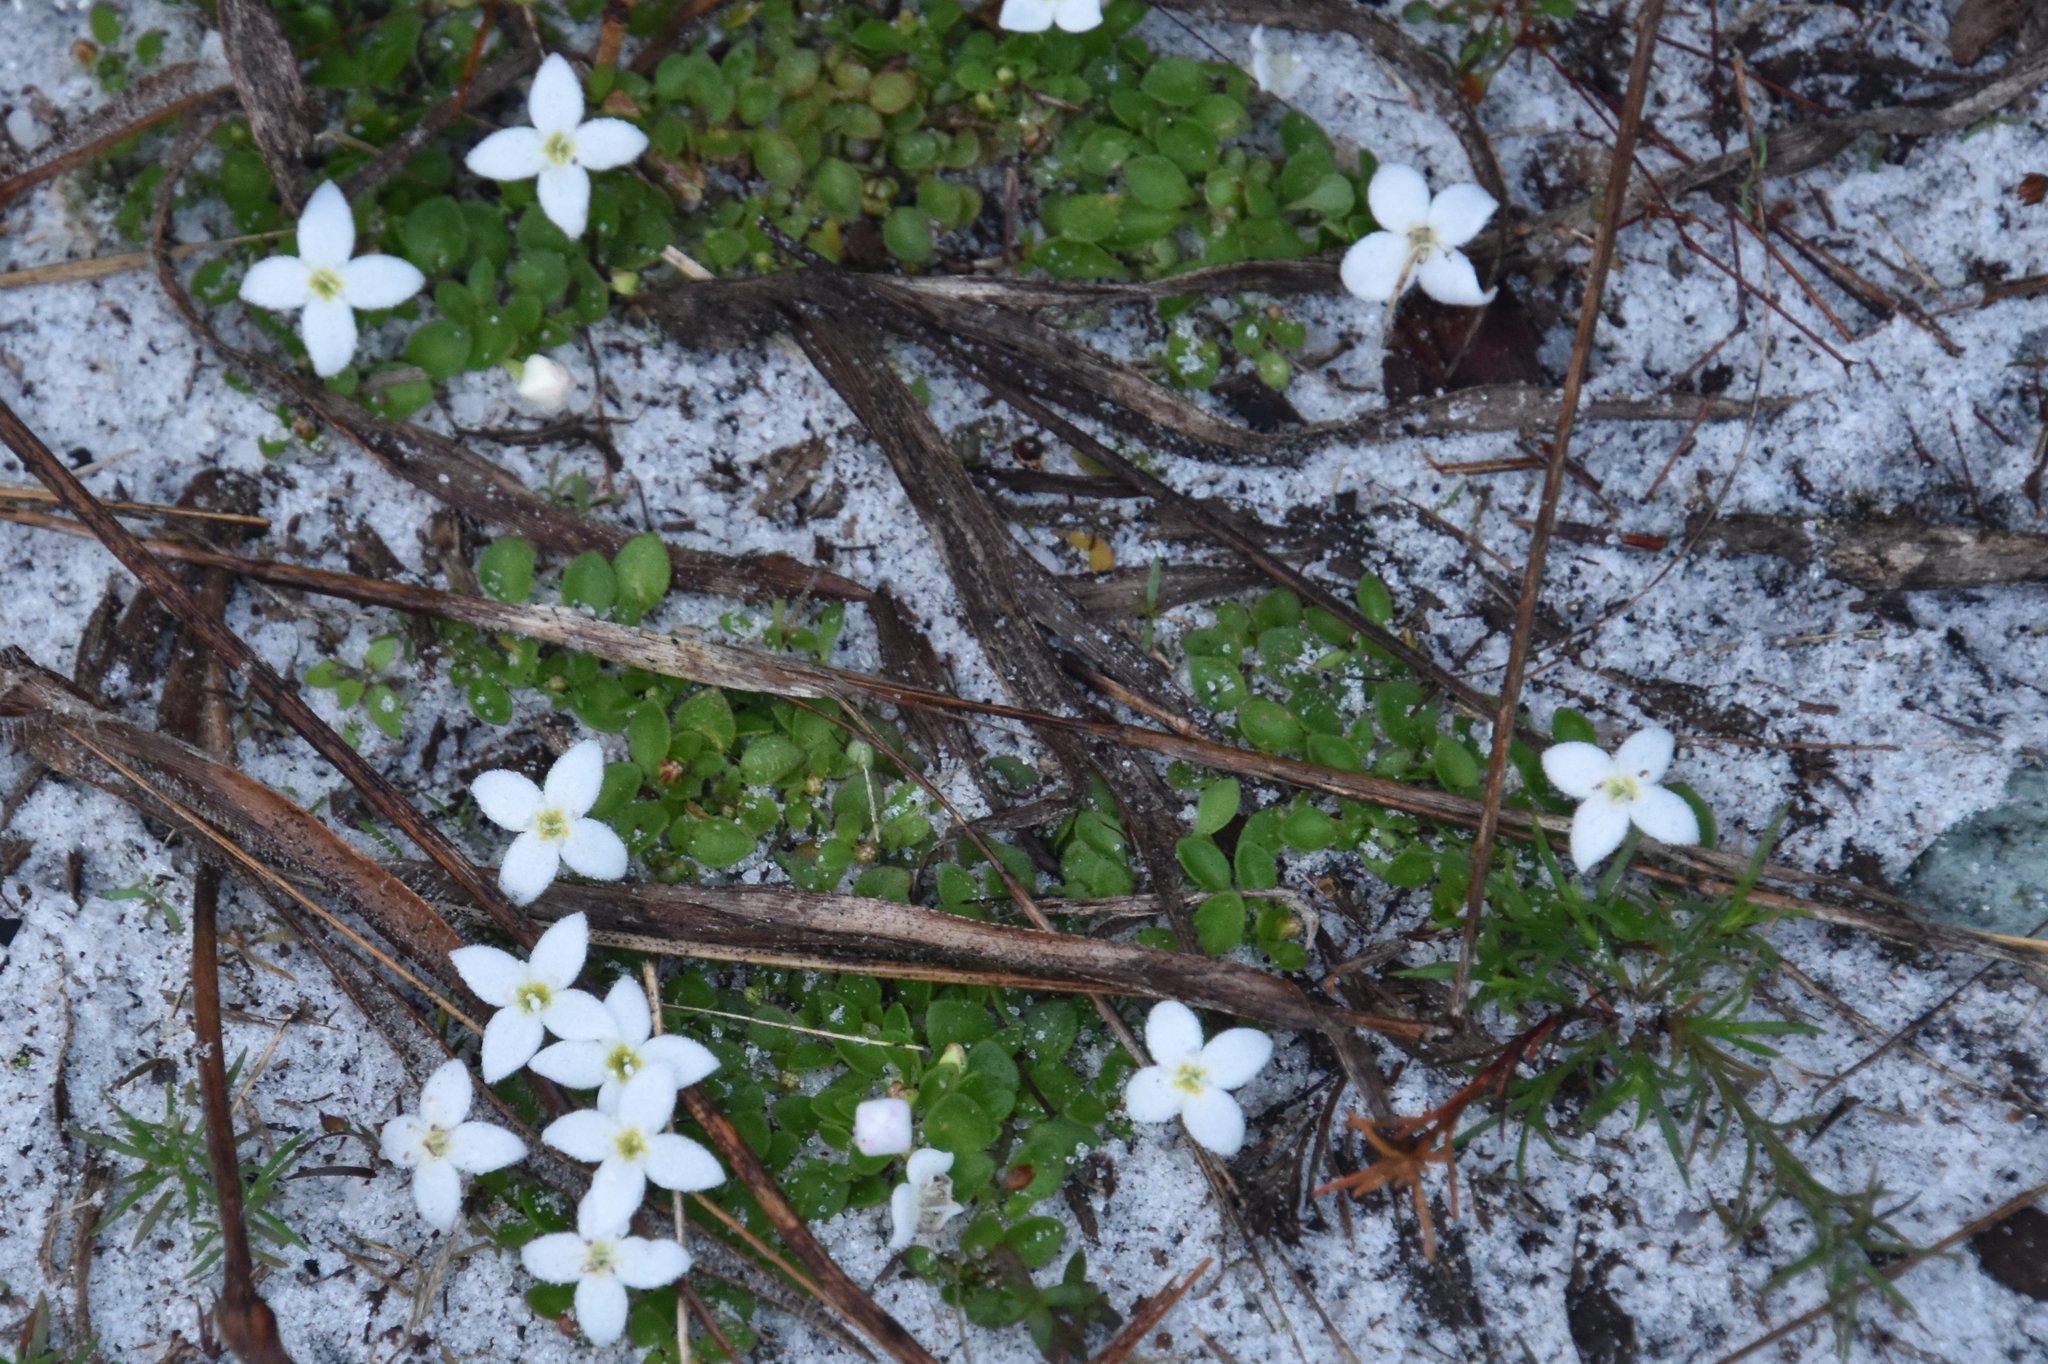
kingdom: Plantae
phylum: Tracheophyta
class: Magnoliopsida
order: Gentianales
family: Rubiaceae
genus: Houstonia
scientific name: Houstonia procumbens
